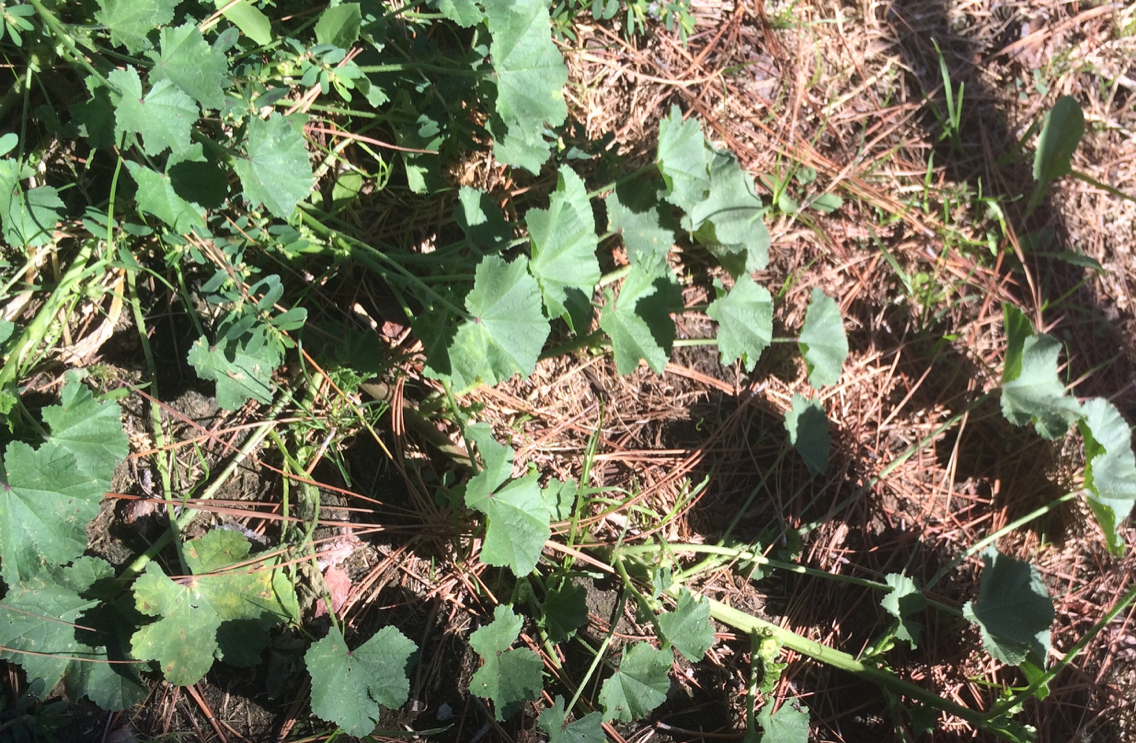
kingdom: Plantae
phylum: Tracheophyta
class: Magnoliopsida
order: Malvales
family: Malvaceae
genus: Malva
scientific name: Malva parviflora
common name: Least mallow
